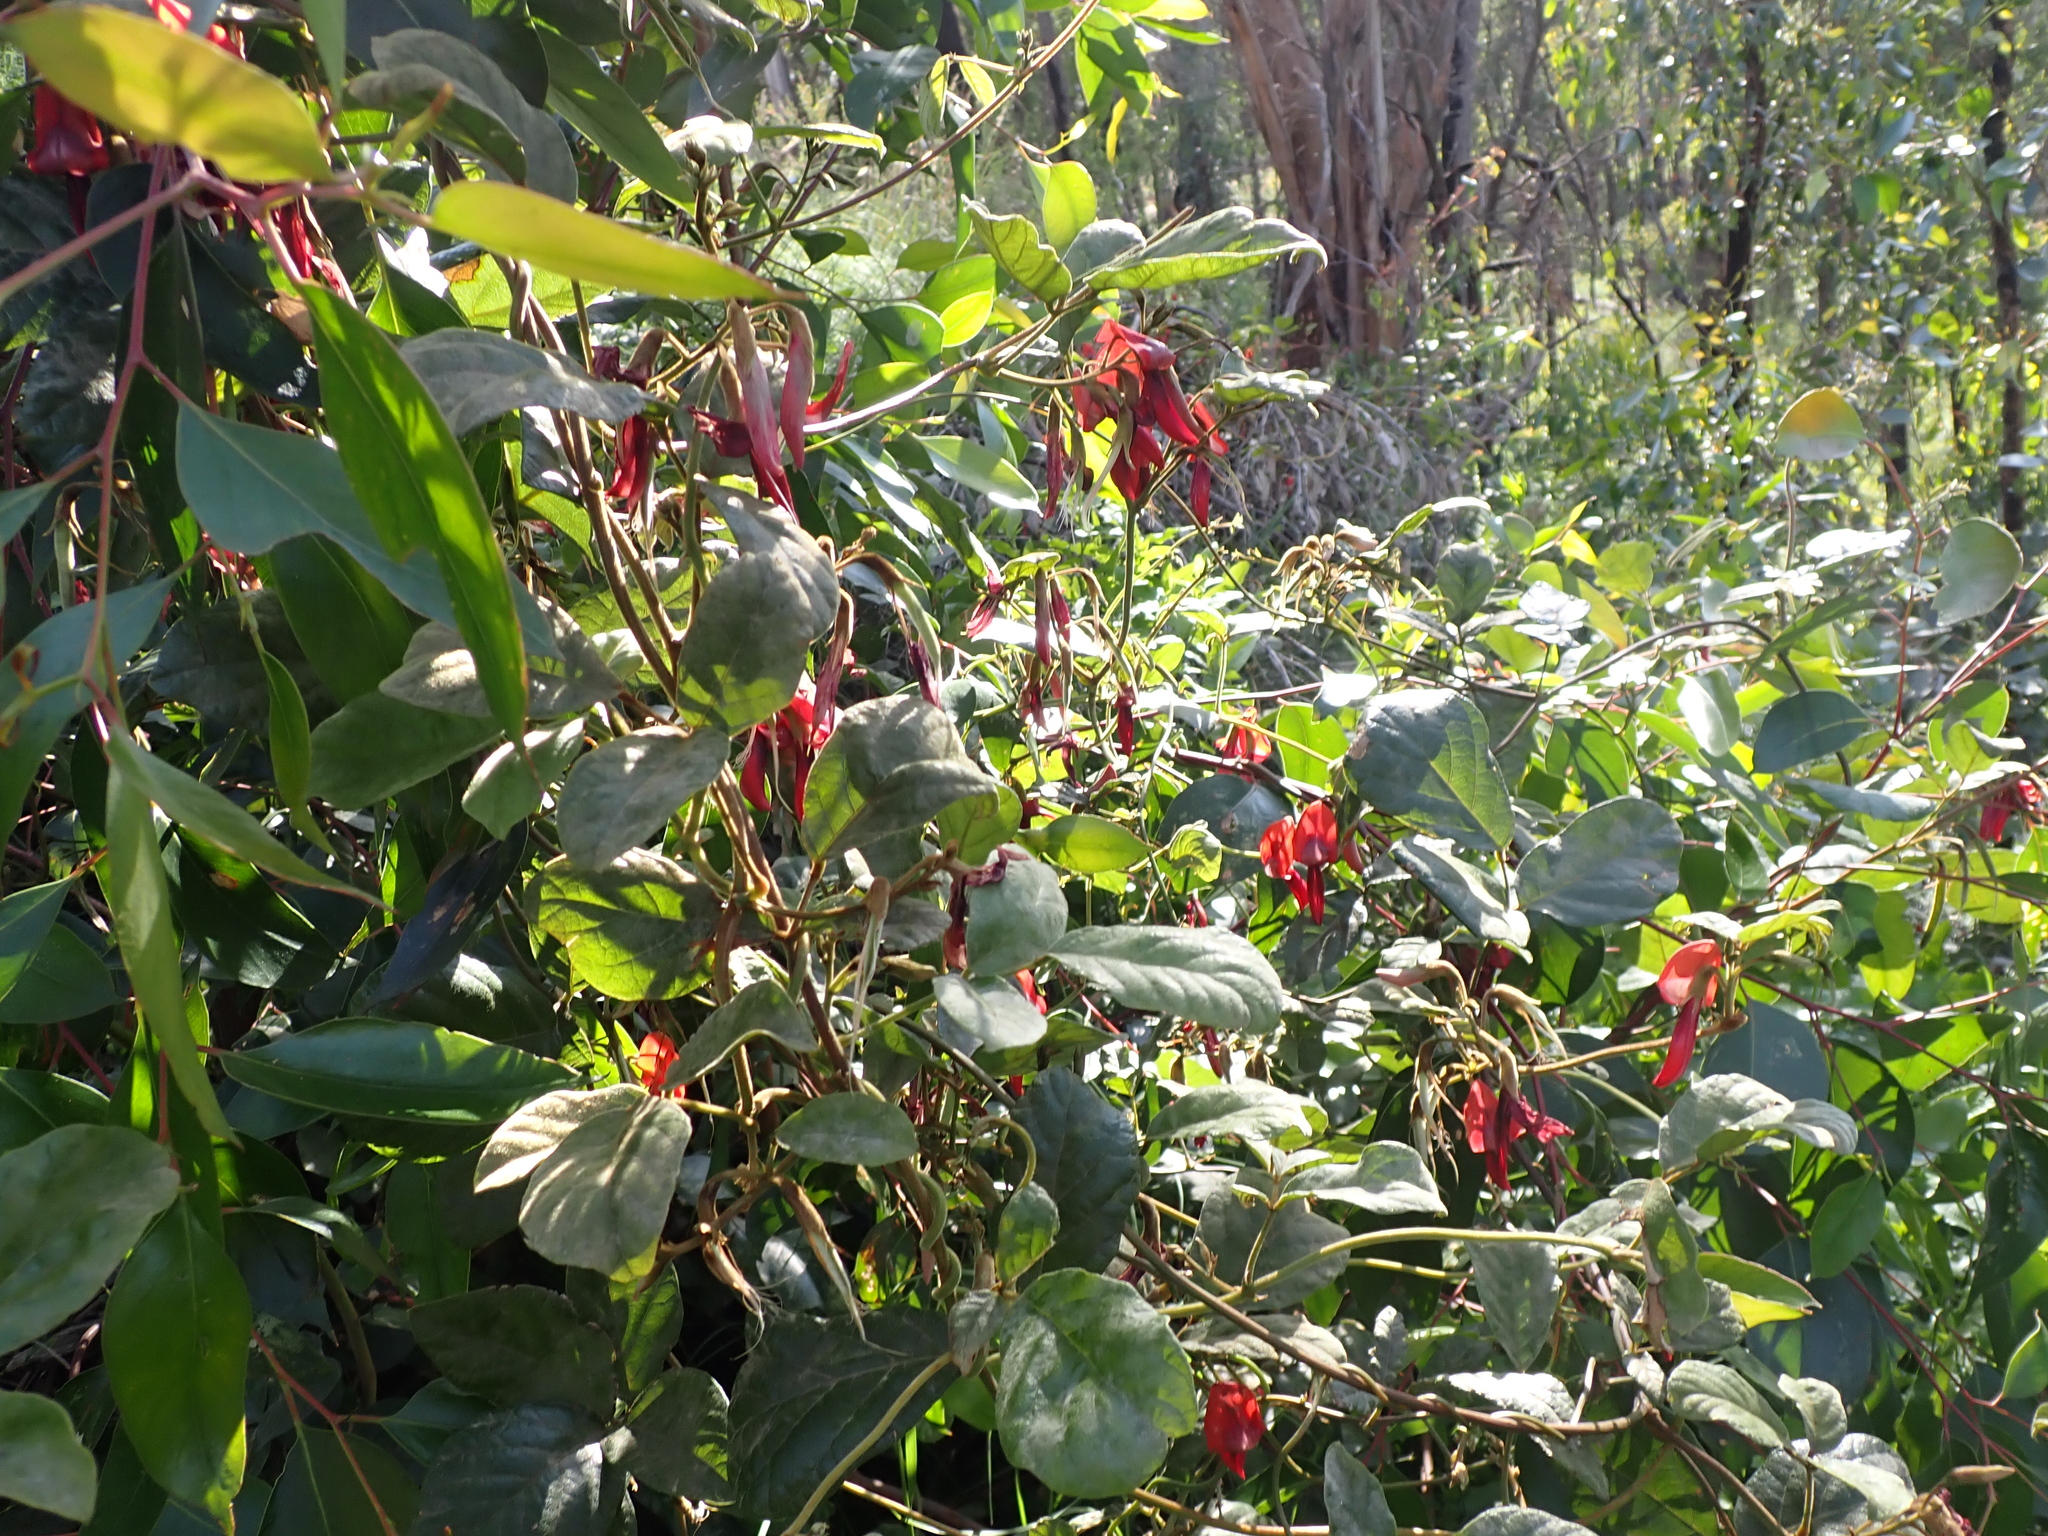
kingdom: Plantae
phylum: Tracheophyta
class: Magnoliopsida
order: Fabales
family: Fabaceae
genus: Kennedia
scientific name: Kennedia rubicunda
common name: Red kennedy-pea
